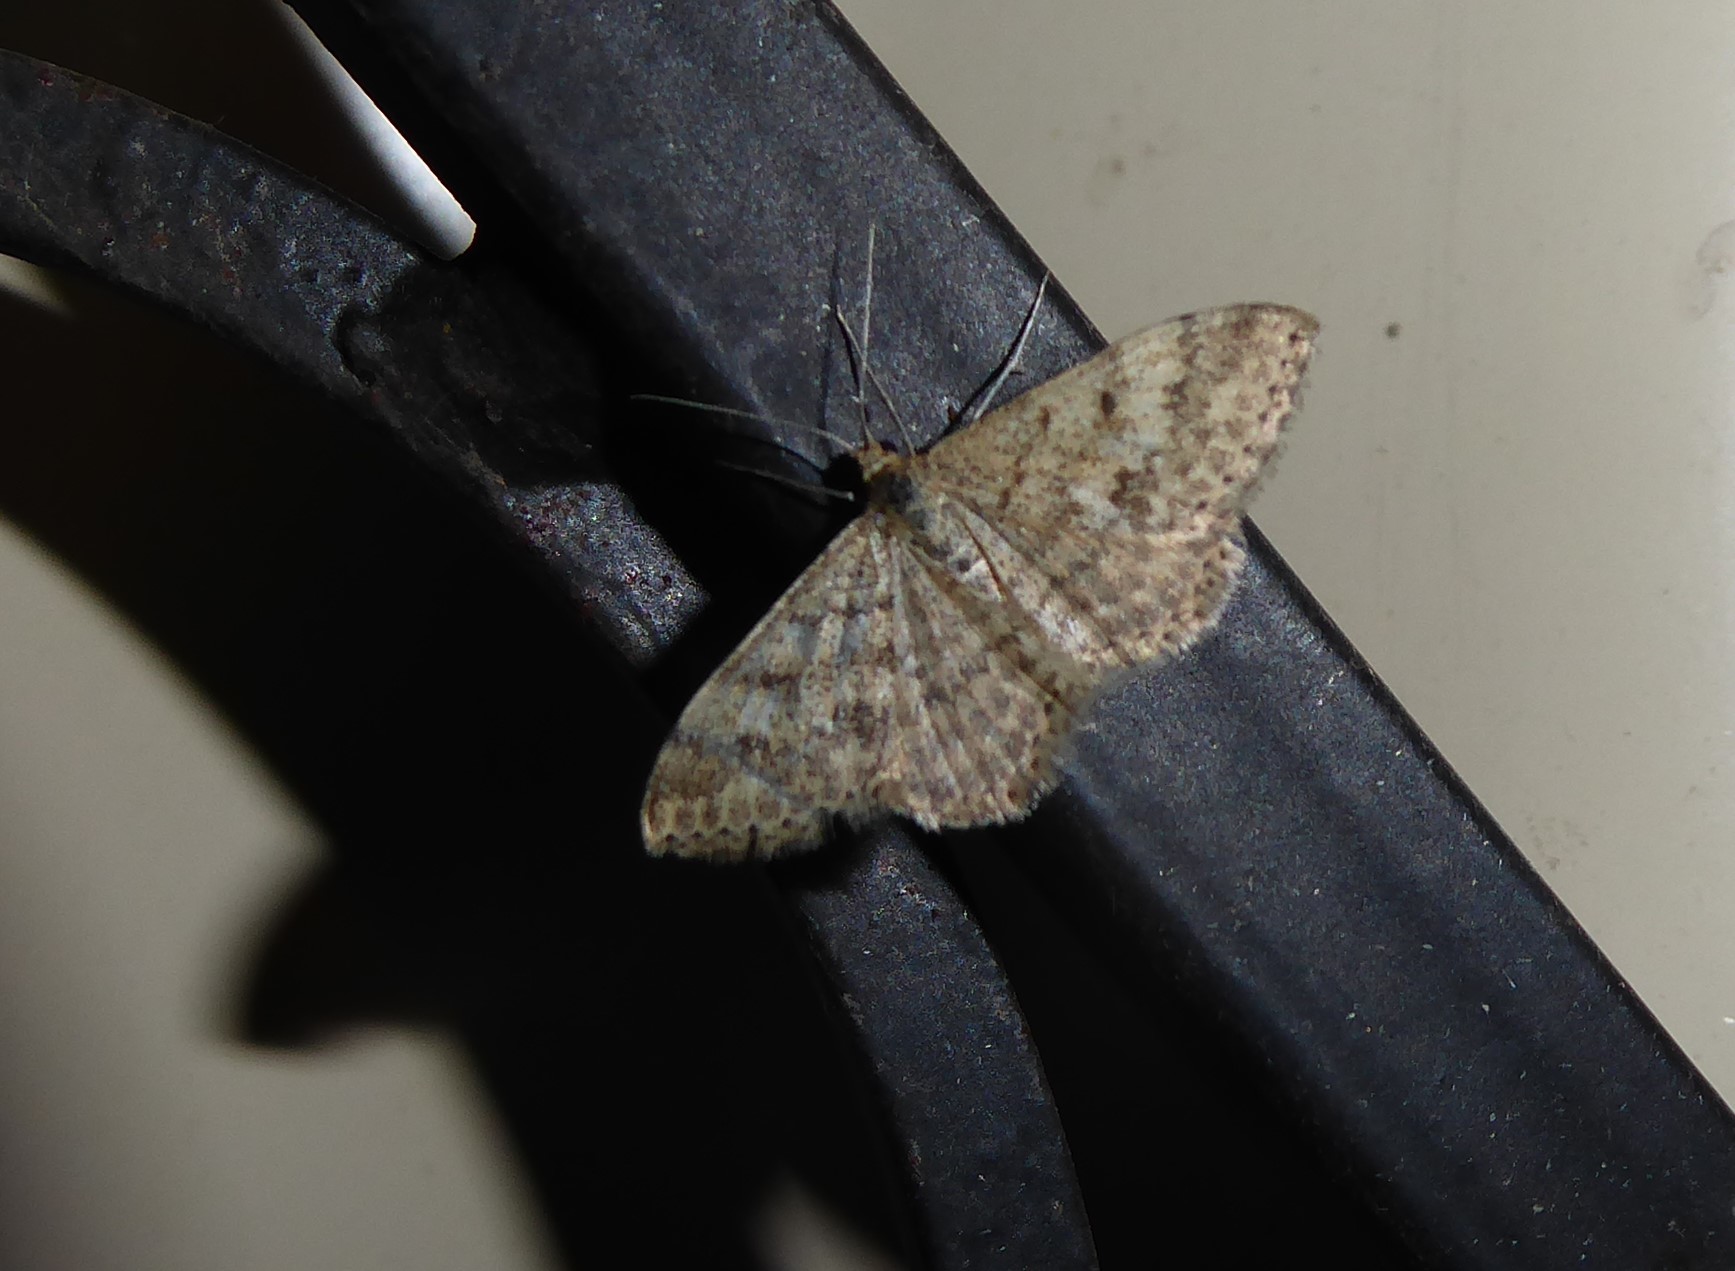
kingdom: Animalia
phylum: Arthropoda
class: Insecta
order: Lepidoptera
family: Geometridae
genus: Scopula
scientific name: Scopula rubraria
